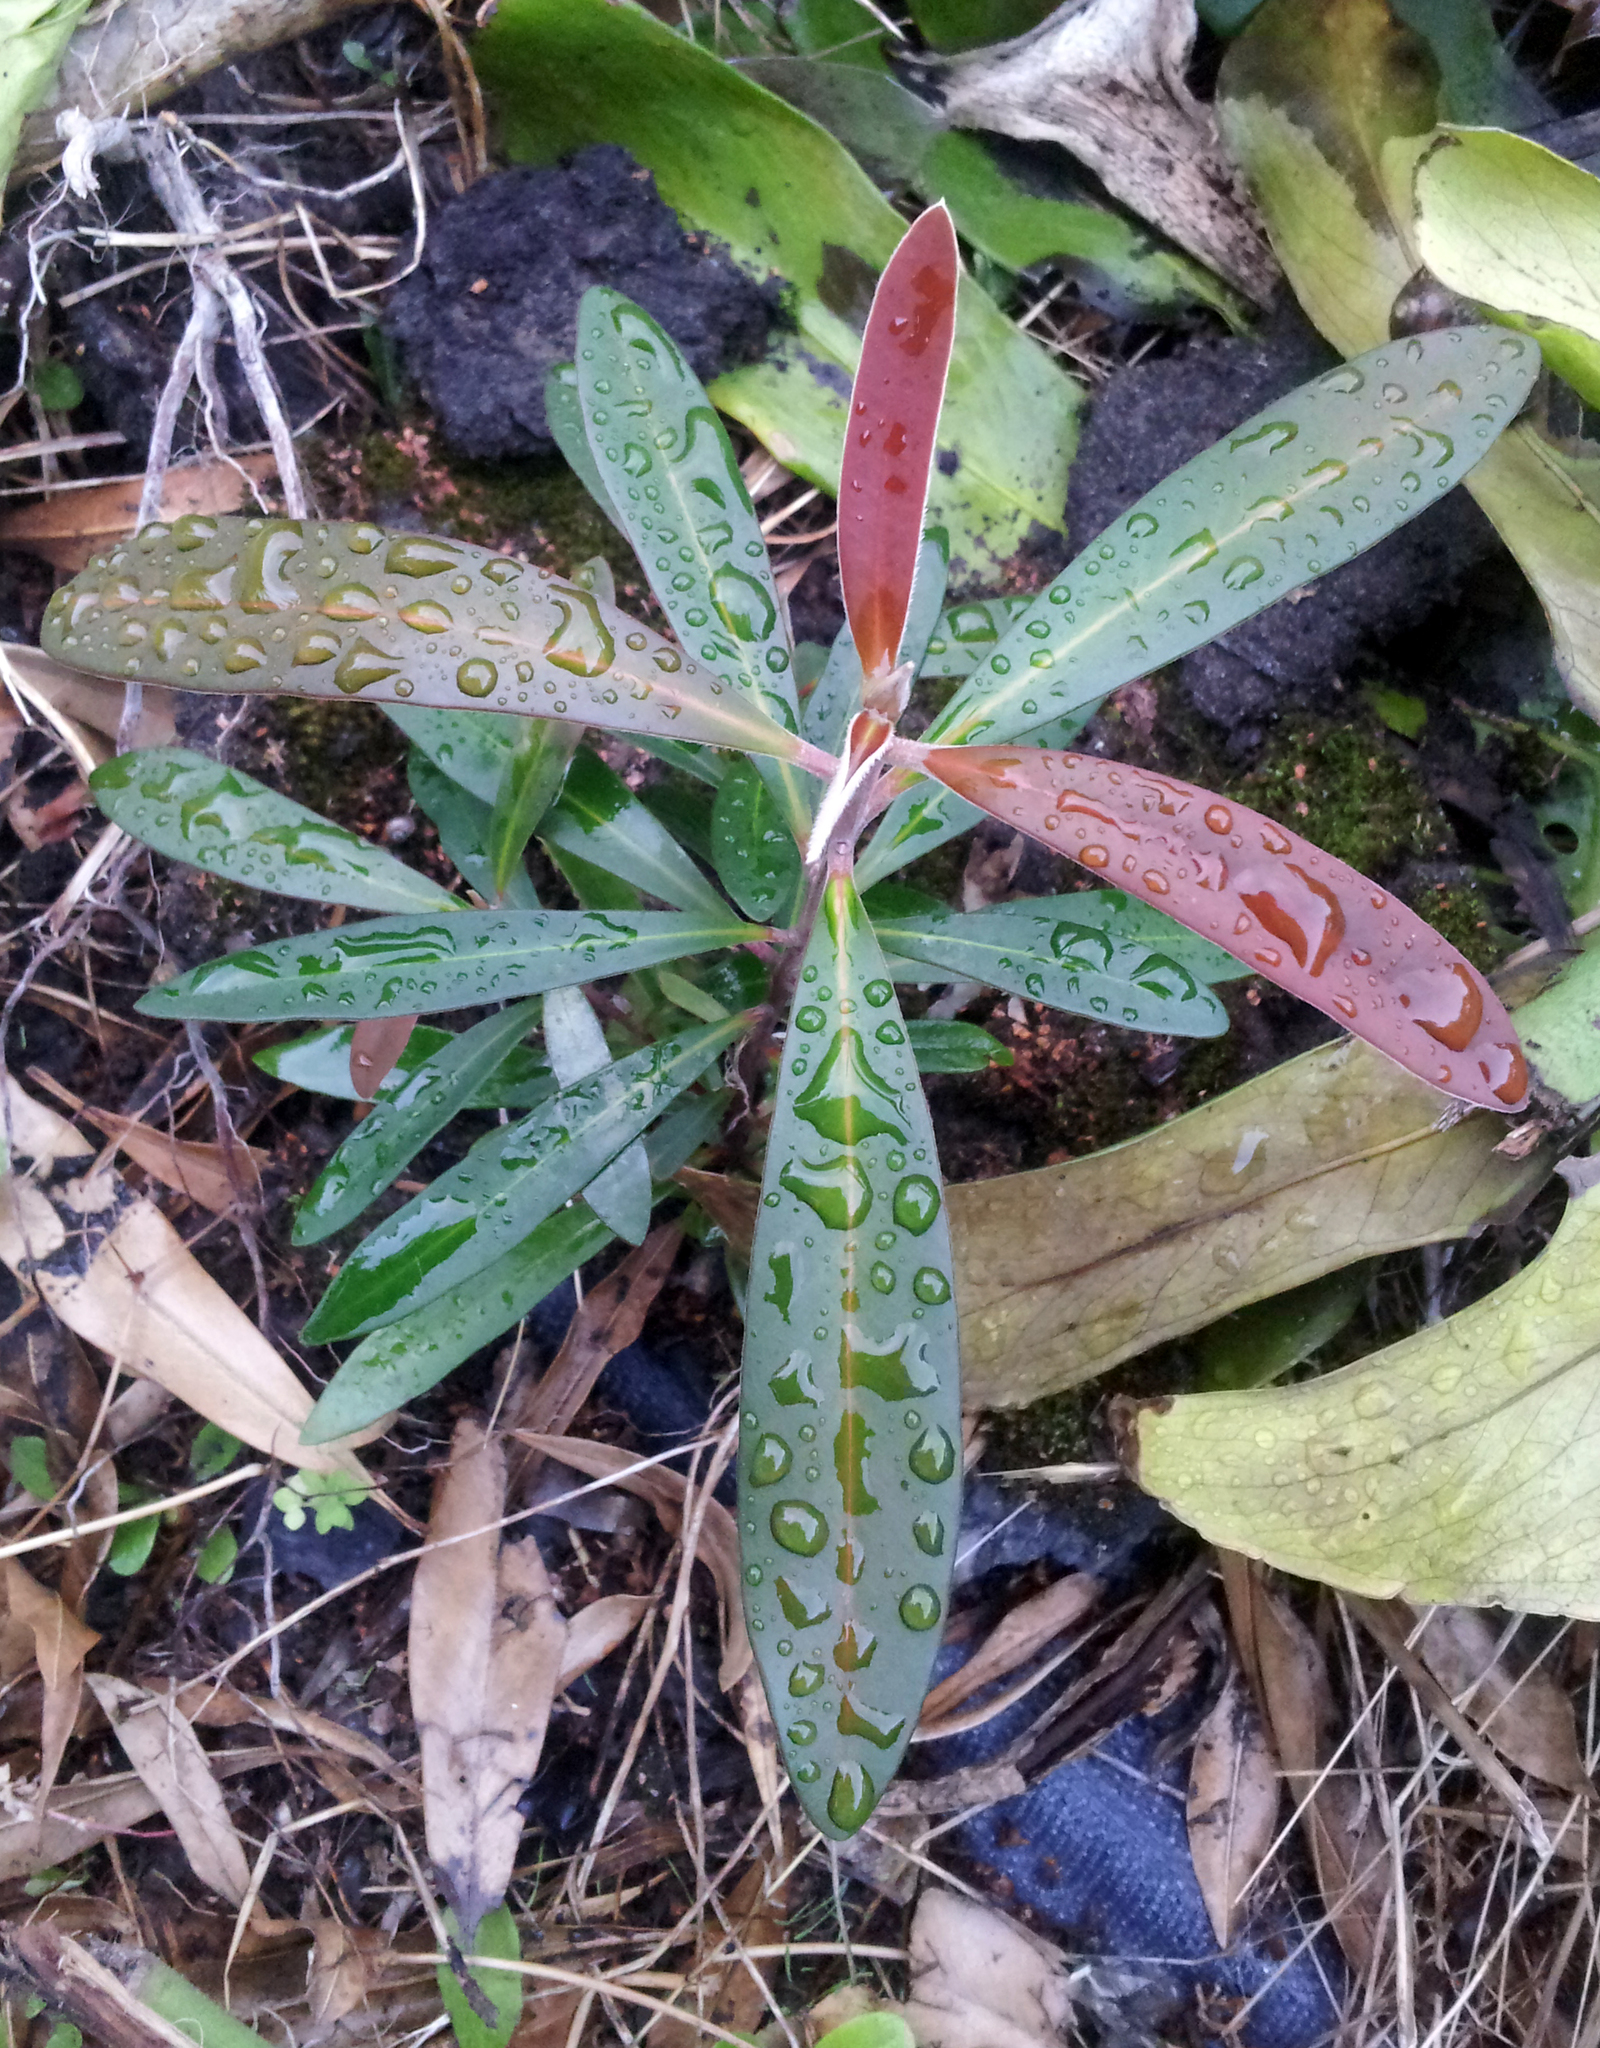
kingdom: Plantae
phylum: Tracheophyta
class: Magnoliopsida
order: Myrtales
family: Myrtaceae
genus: Tristaniopsis
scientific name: Tristaniopsis laurina
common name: Water-gum
